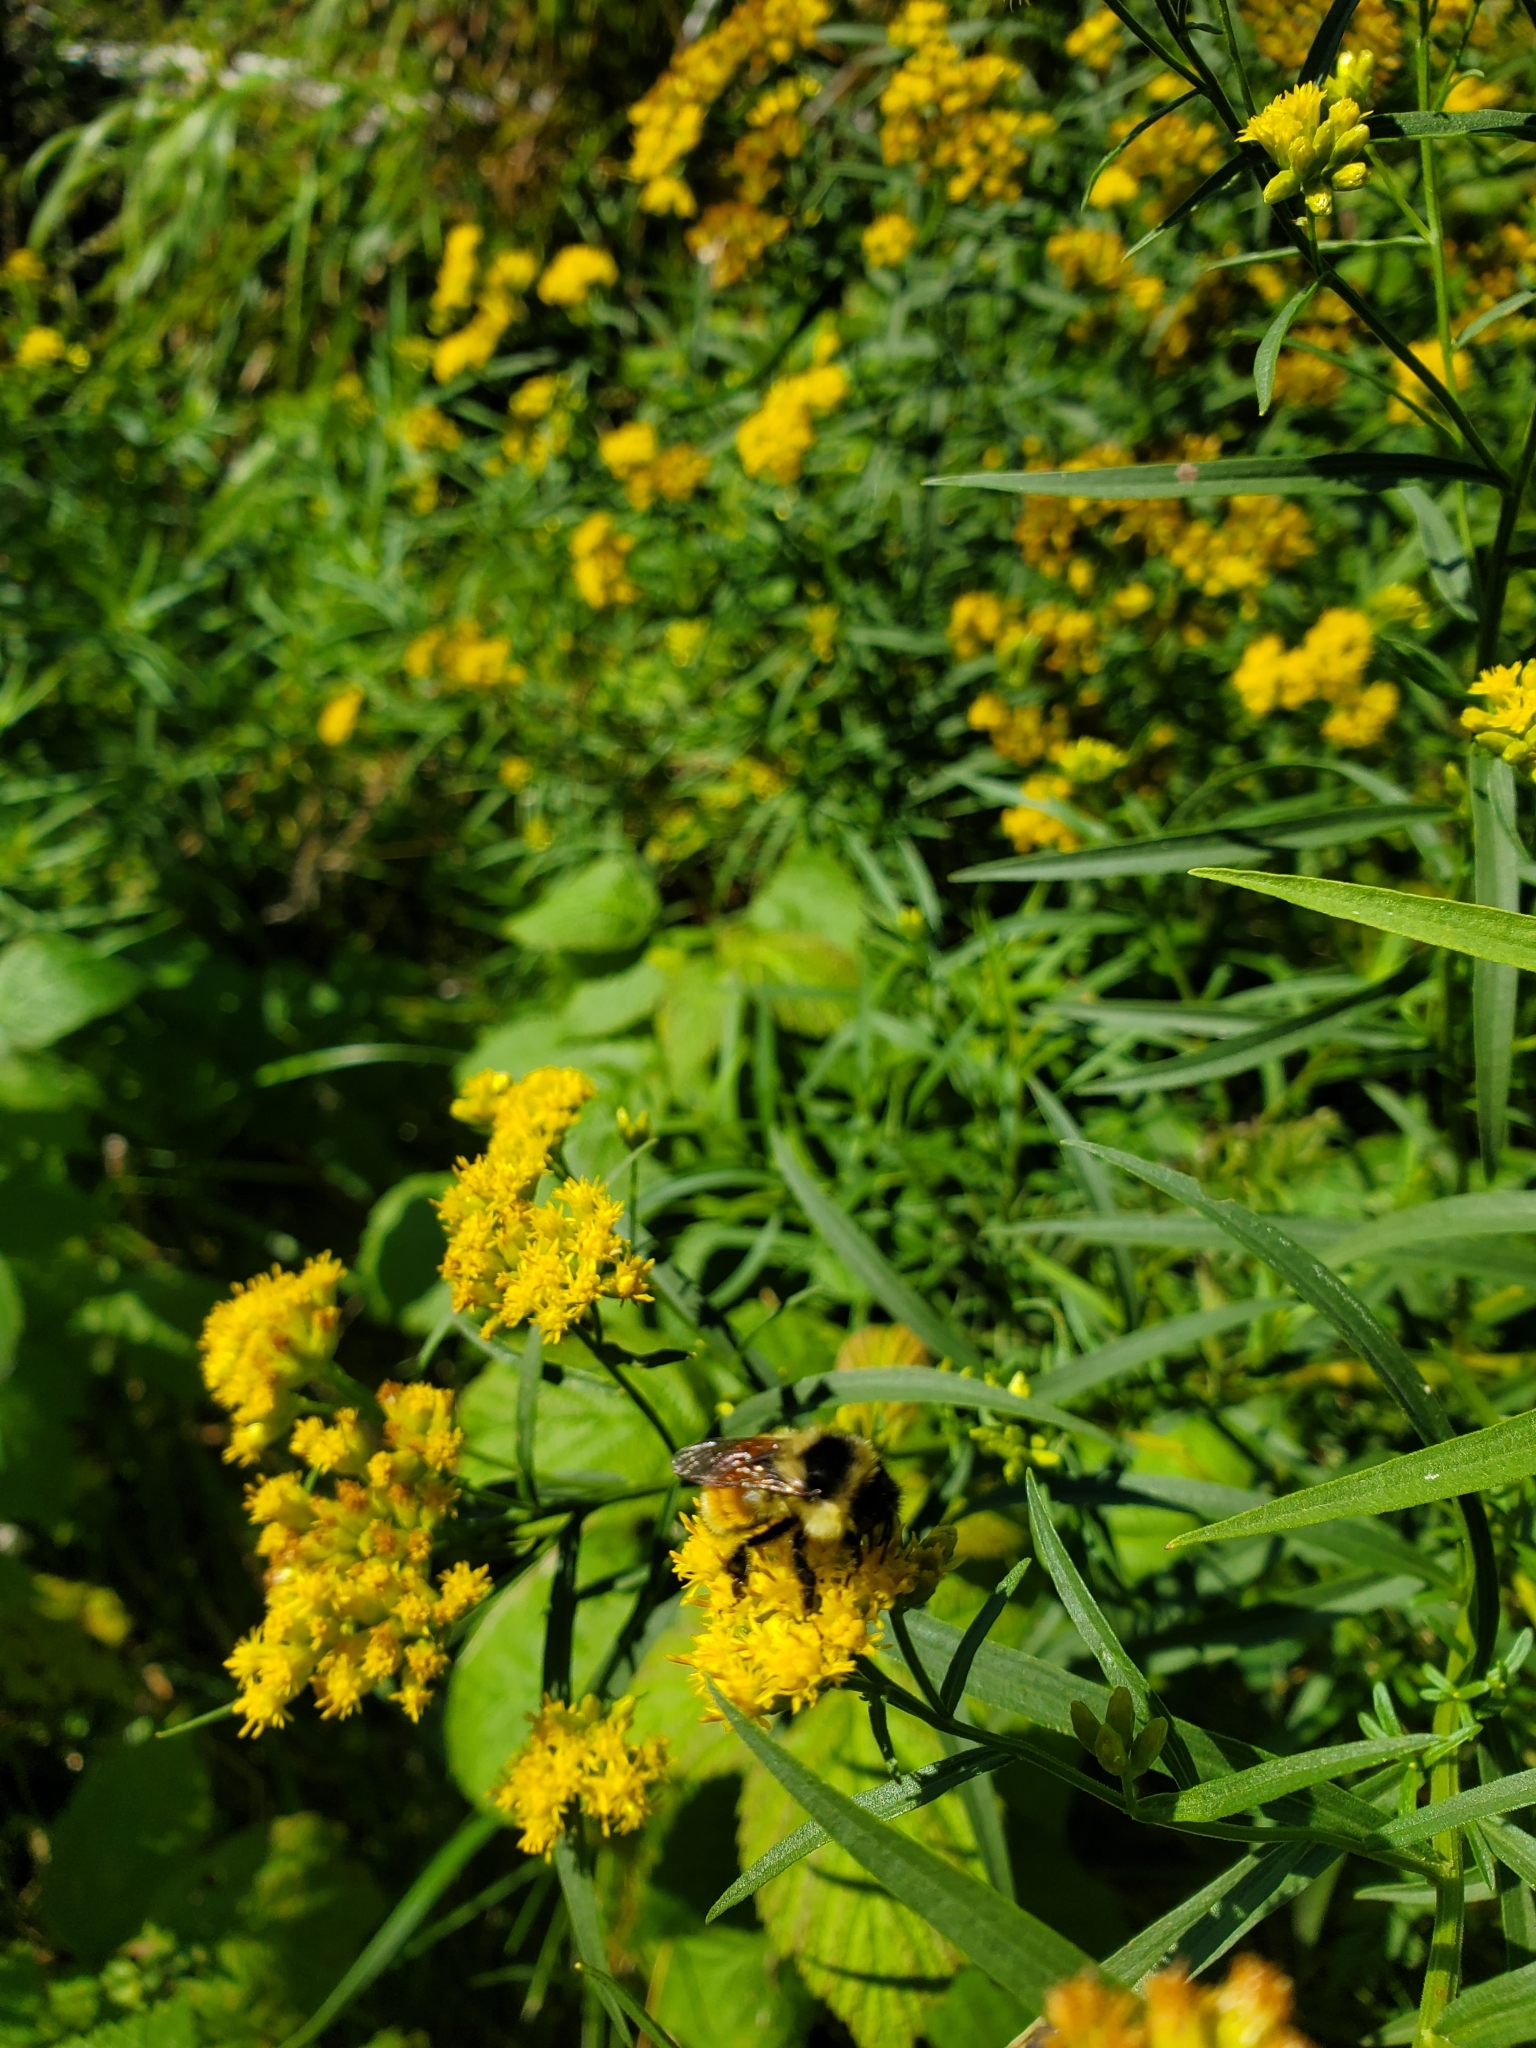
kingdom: Animalia
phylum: Arthropoda
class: Insecta
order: Hymenoptera
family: Apidae
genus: Bombus
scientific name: Bombus ternarius
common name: Tri-colored bumble bee
